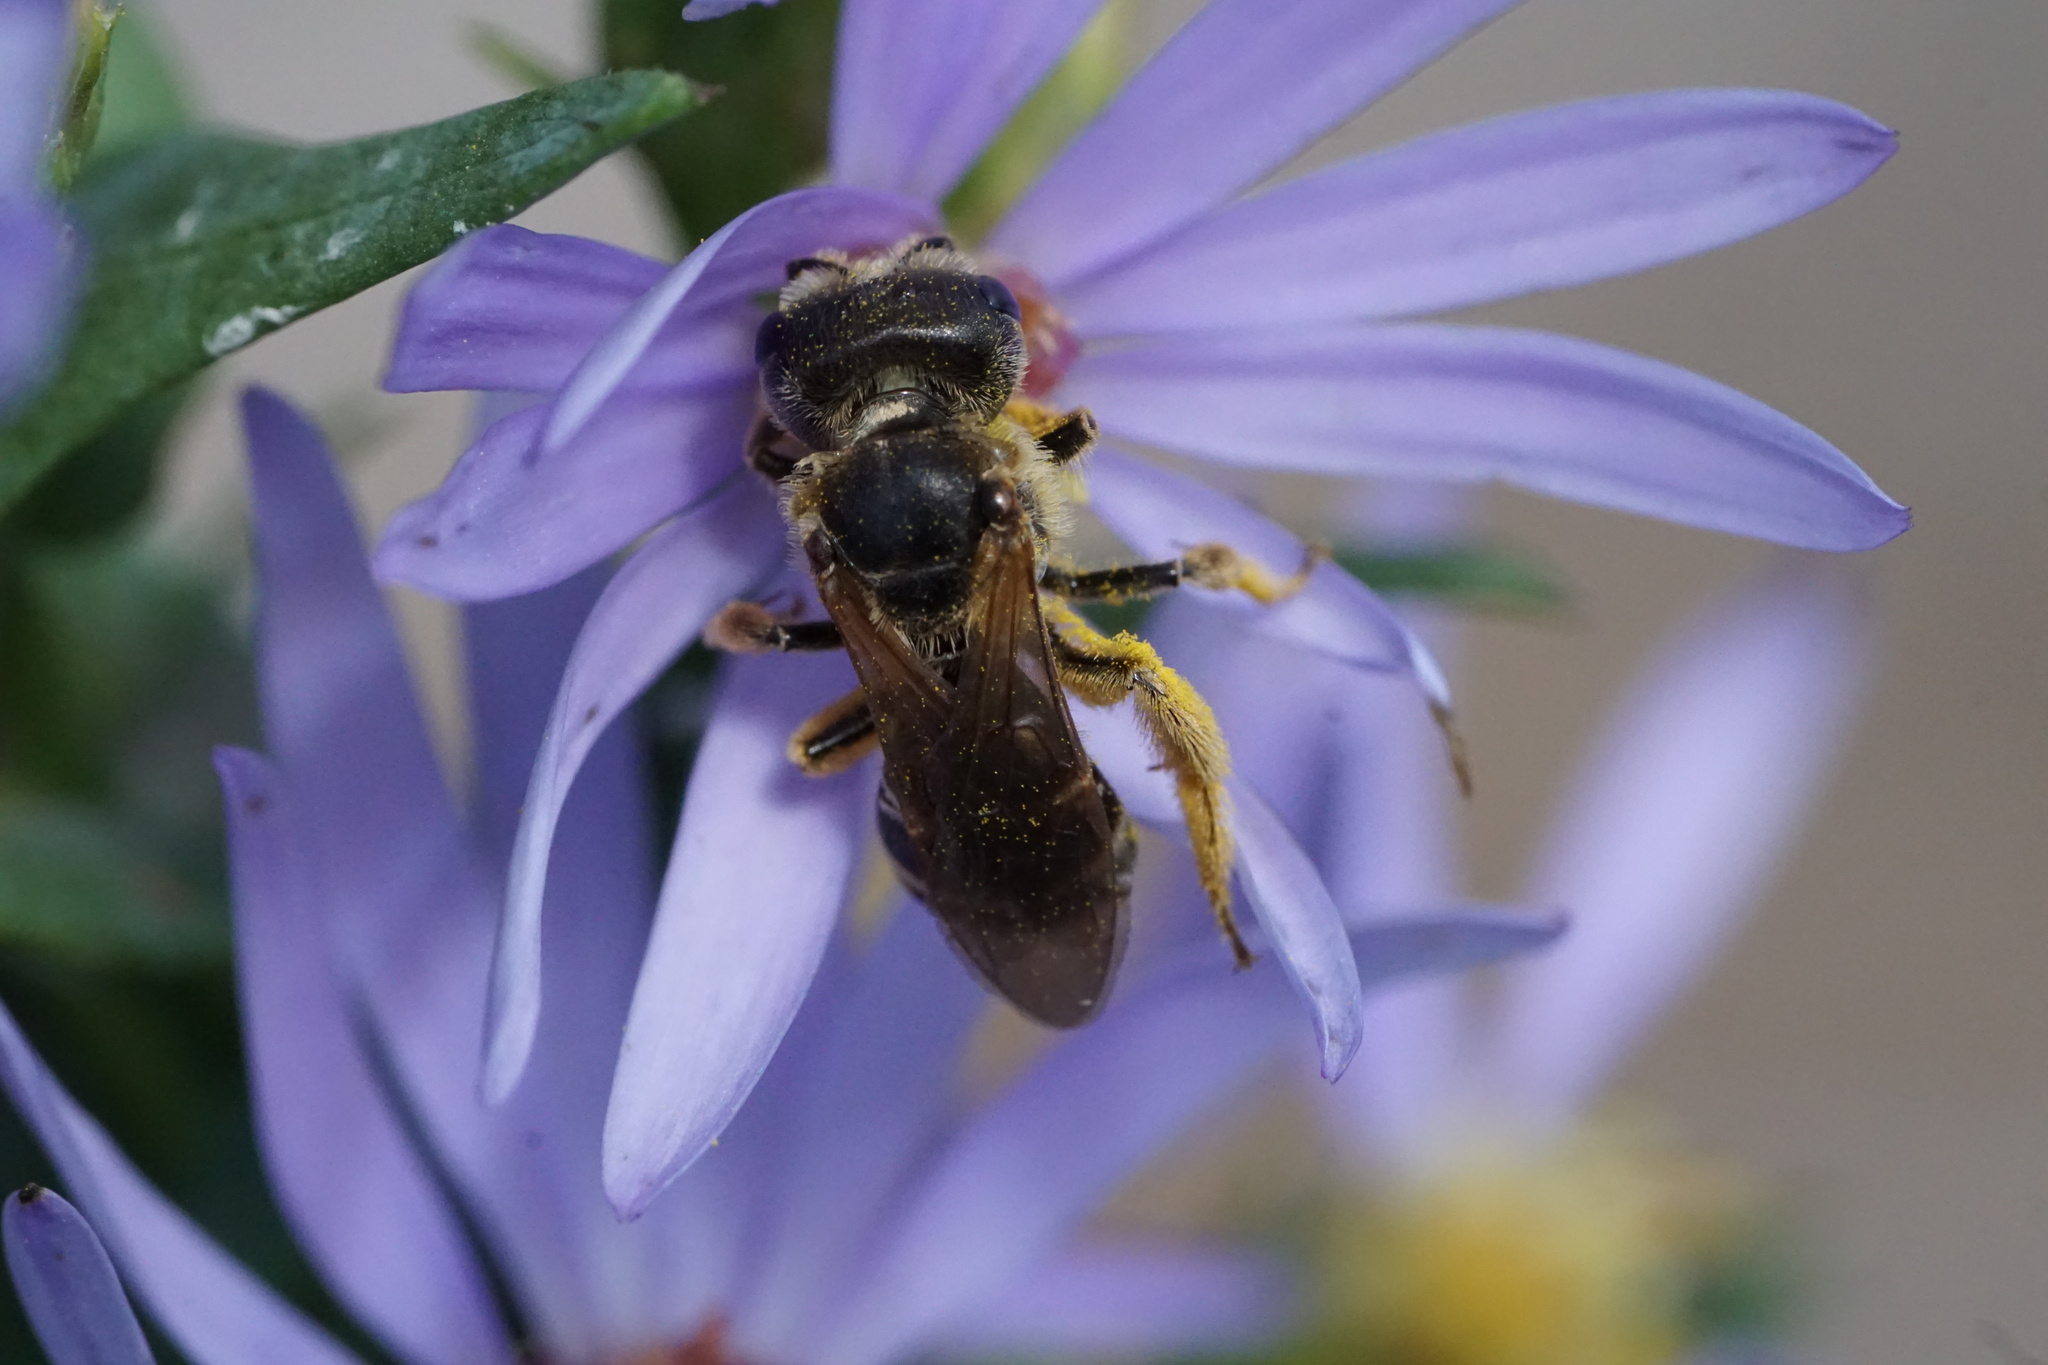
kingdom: Animalia
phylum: Arthropoda
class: Insecta
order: Hymenoptera
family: Halictidae
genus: Halictus
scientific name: Halictus ligatus
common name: Ligated furrow bee
